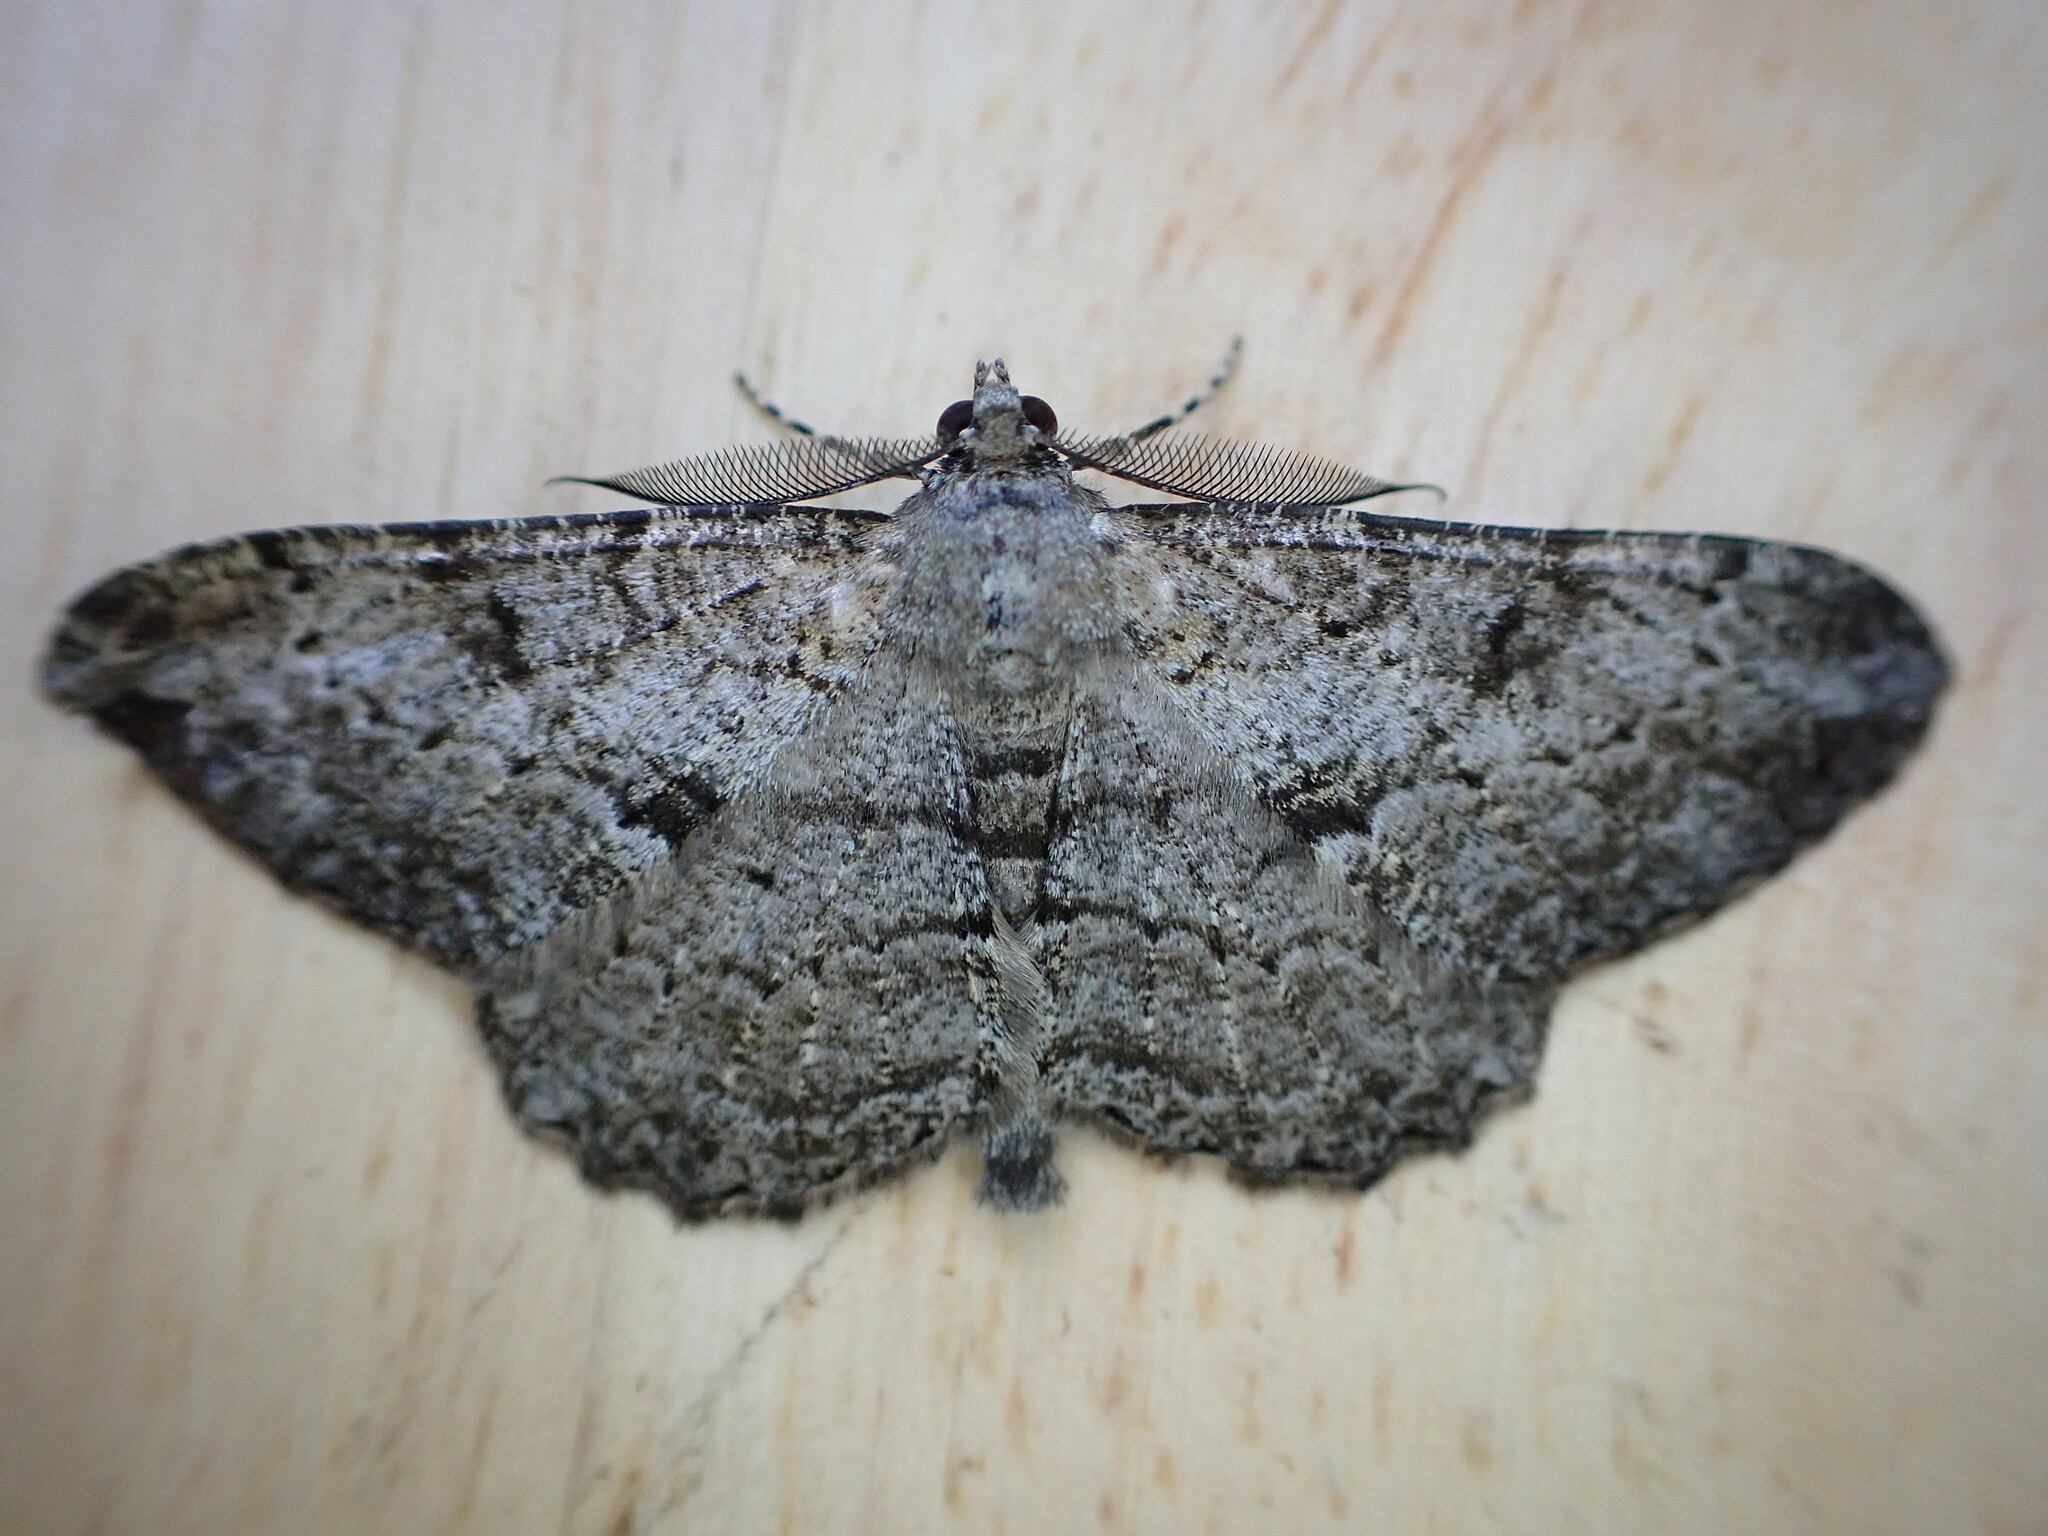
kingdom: Animalia
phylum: Arthropoda
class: Insecta
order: Lepidoptera
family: Geometridae
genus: Peribatodes
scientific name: Peribatodes rhomboidaria
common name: Willow beauty
